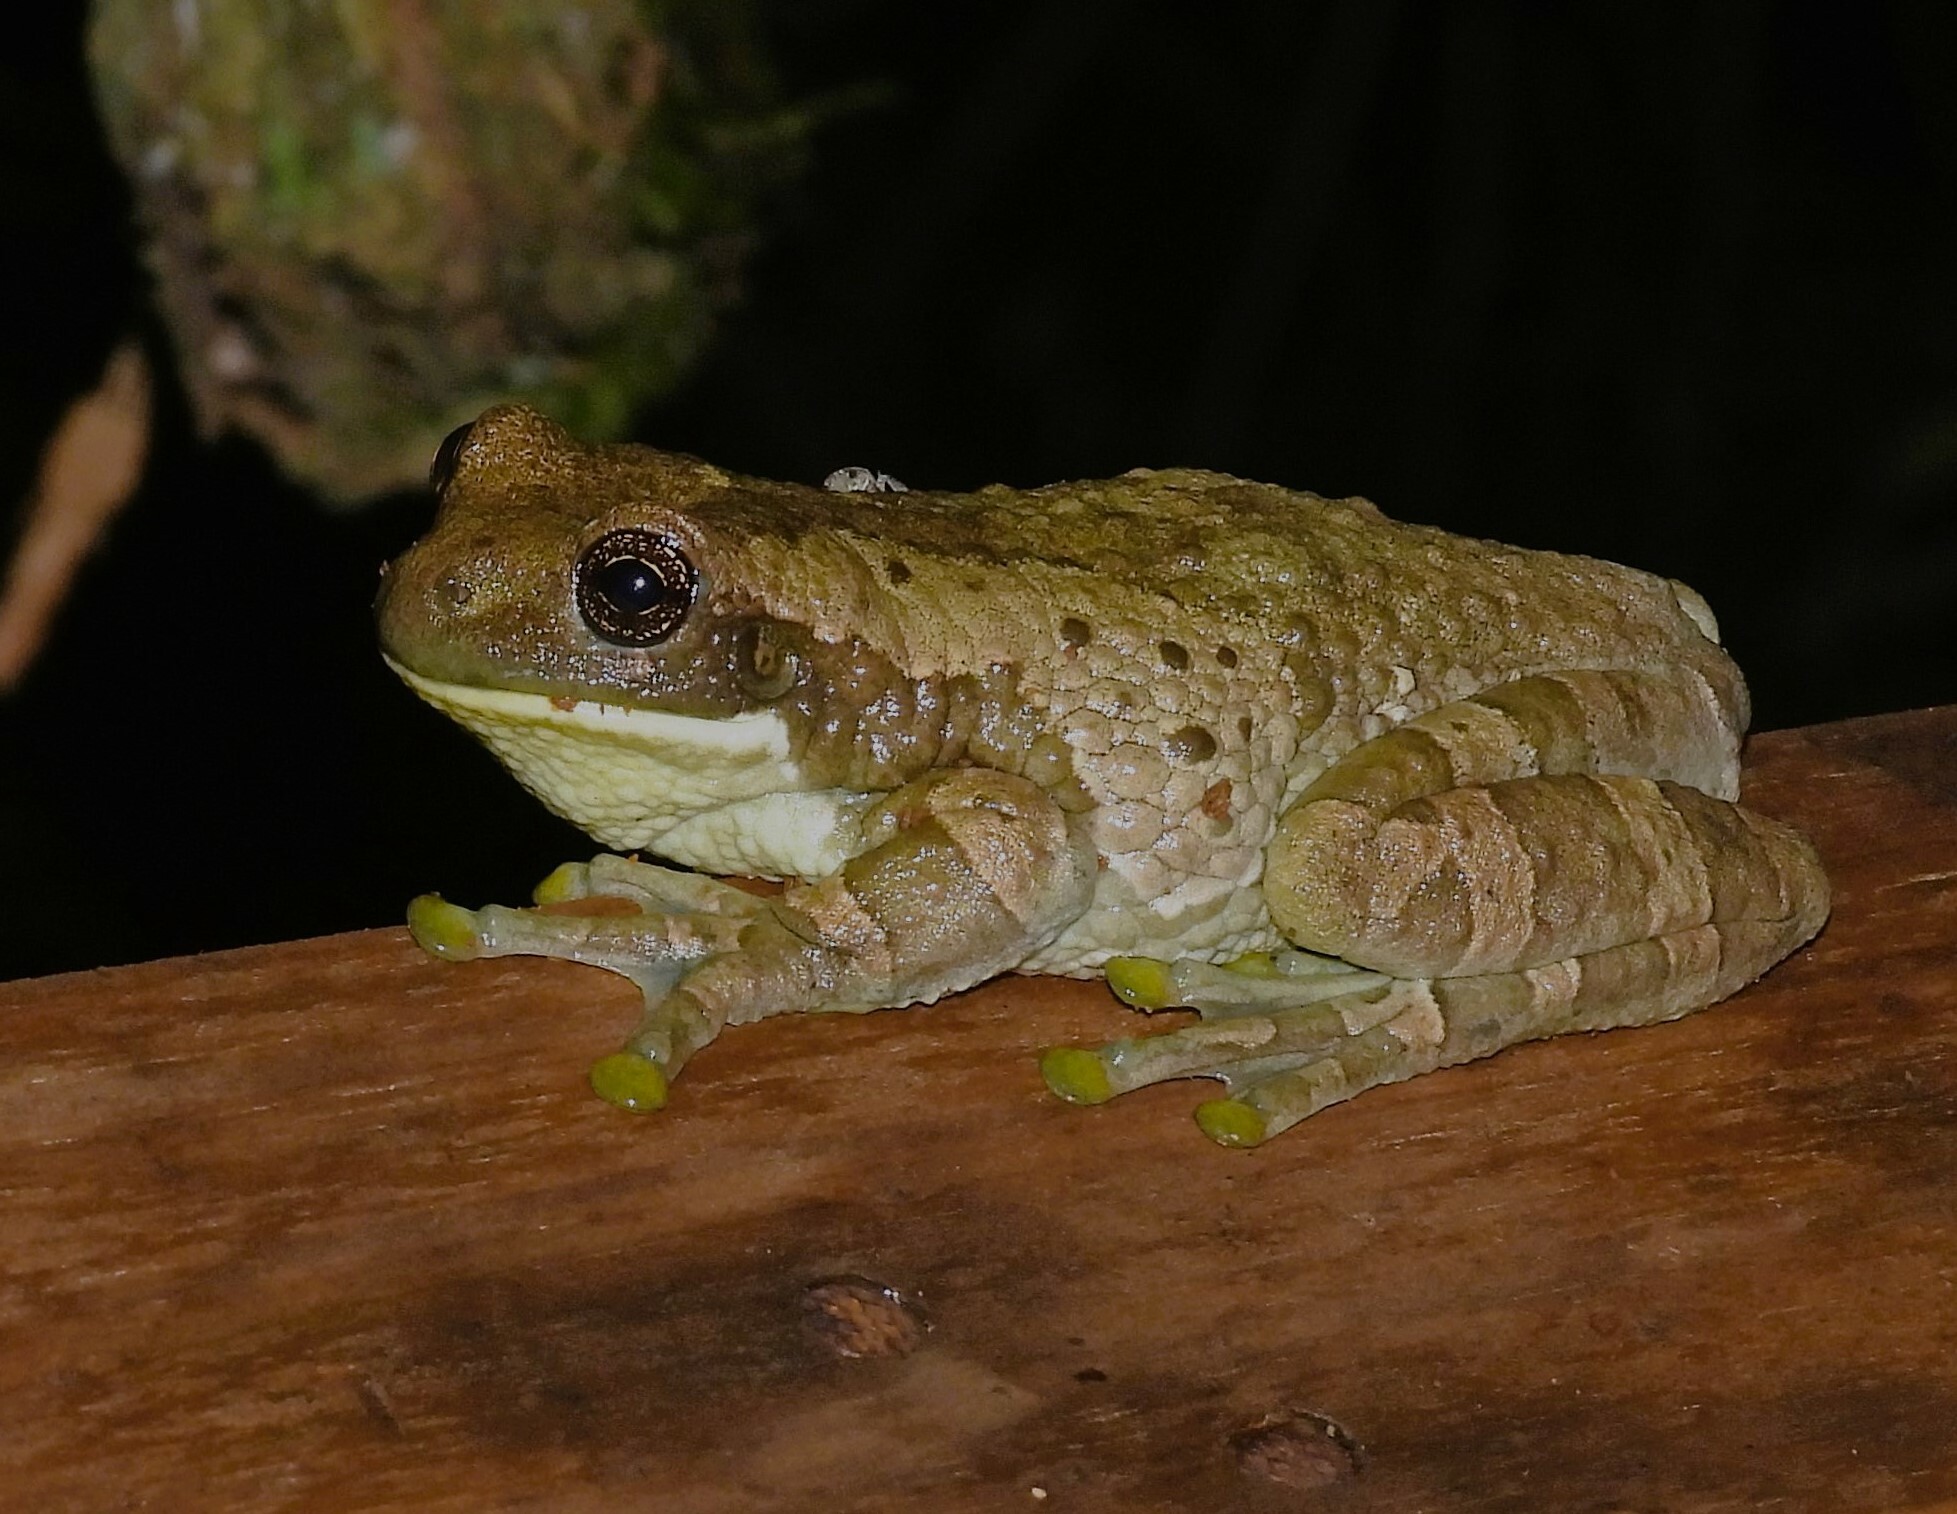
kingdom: Animalia
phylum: Chordata
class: Amphibia
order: Anura
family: Hylidae
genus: Trachycephalus
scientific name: Trachycephalus typhonius
